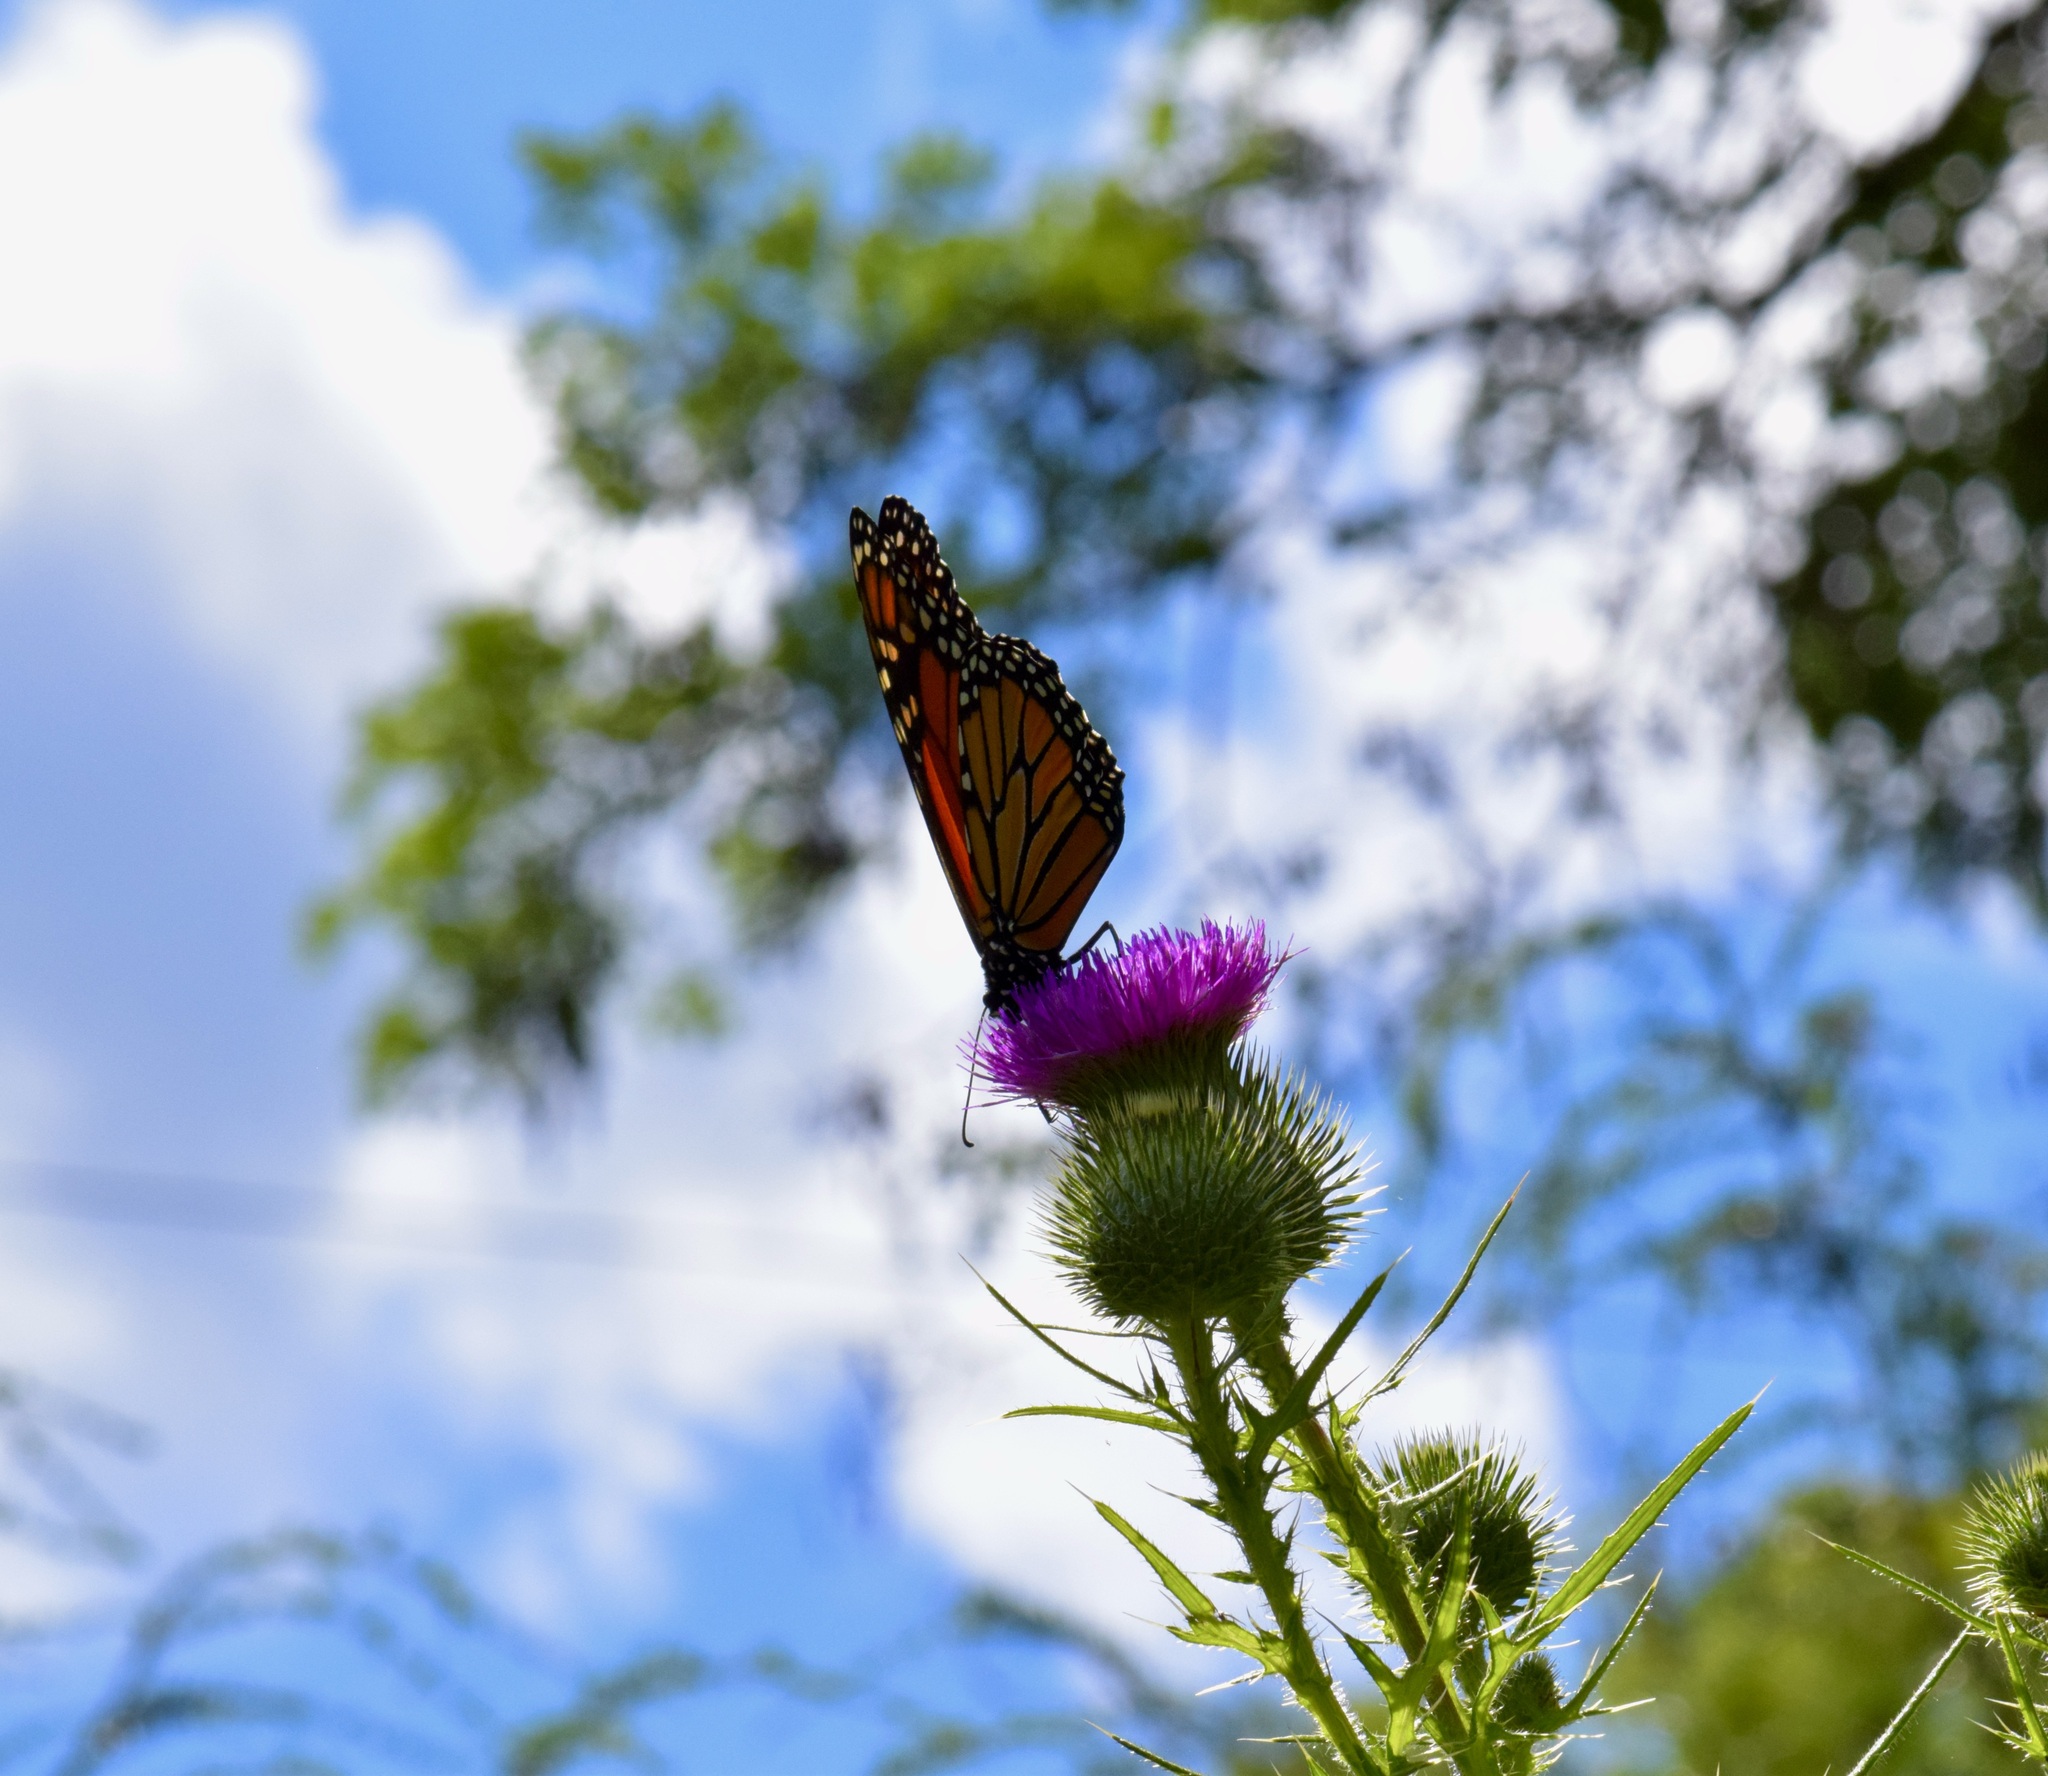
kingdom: Animalia
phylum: Arthropoda
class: Insecta
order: Lepidoptera
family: Nymphalidae
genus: Danaus
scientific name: Danaus plexippus
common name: Monarch
